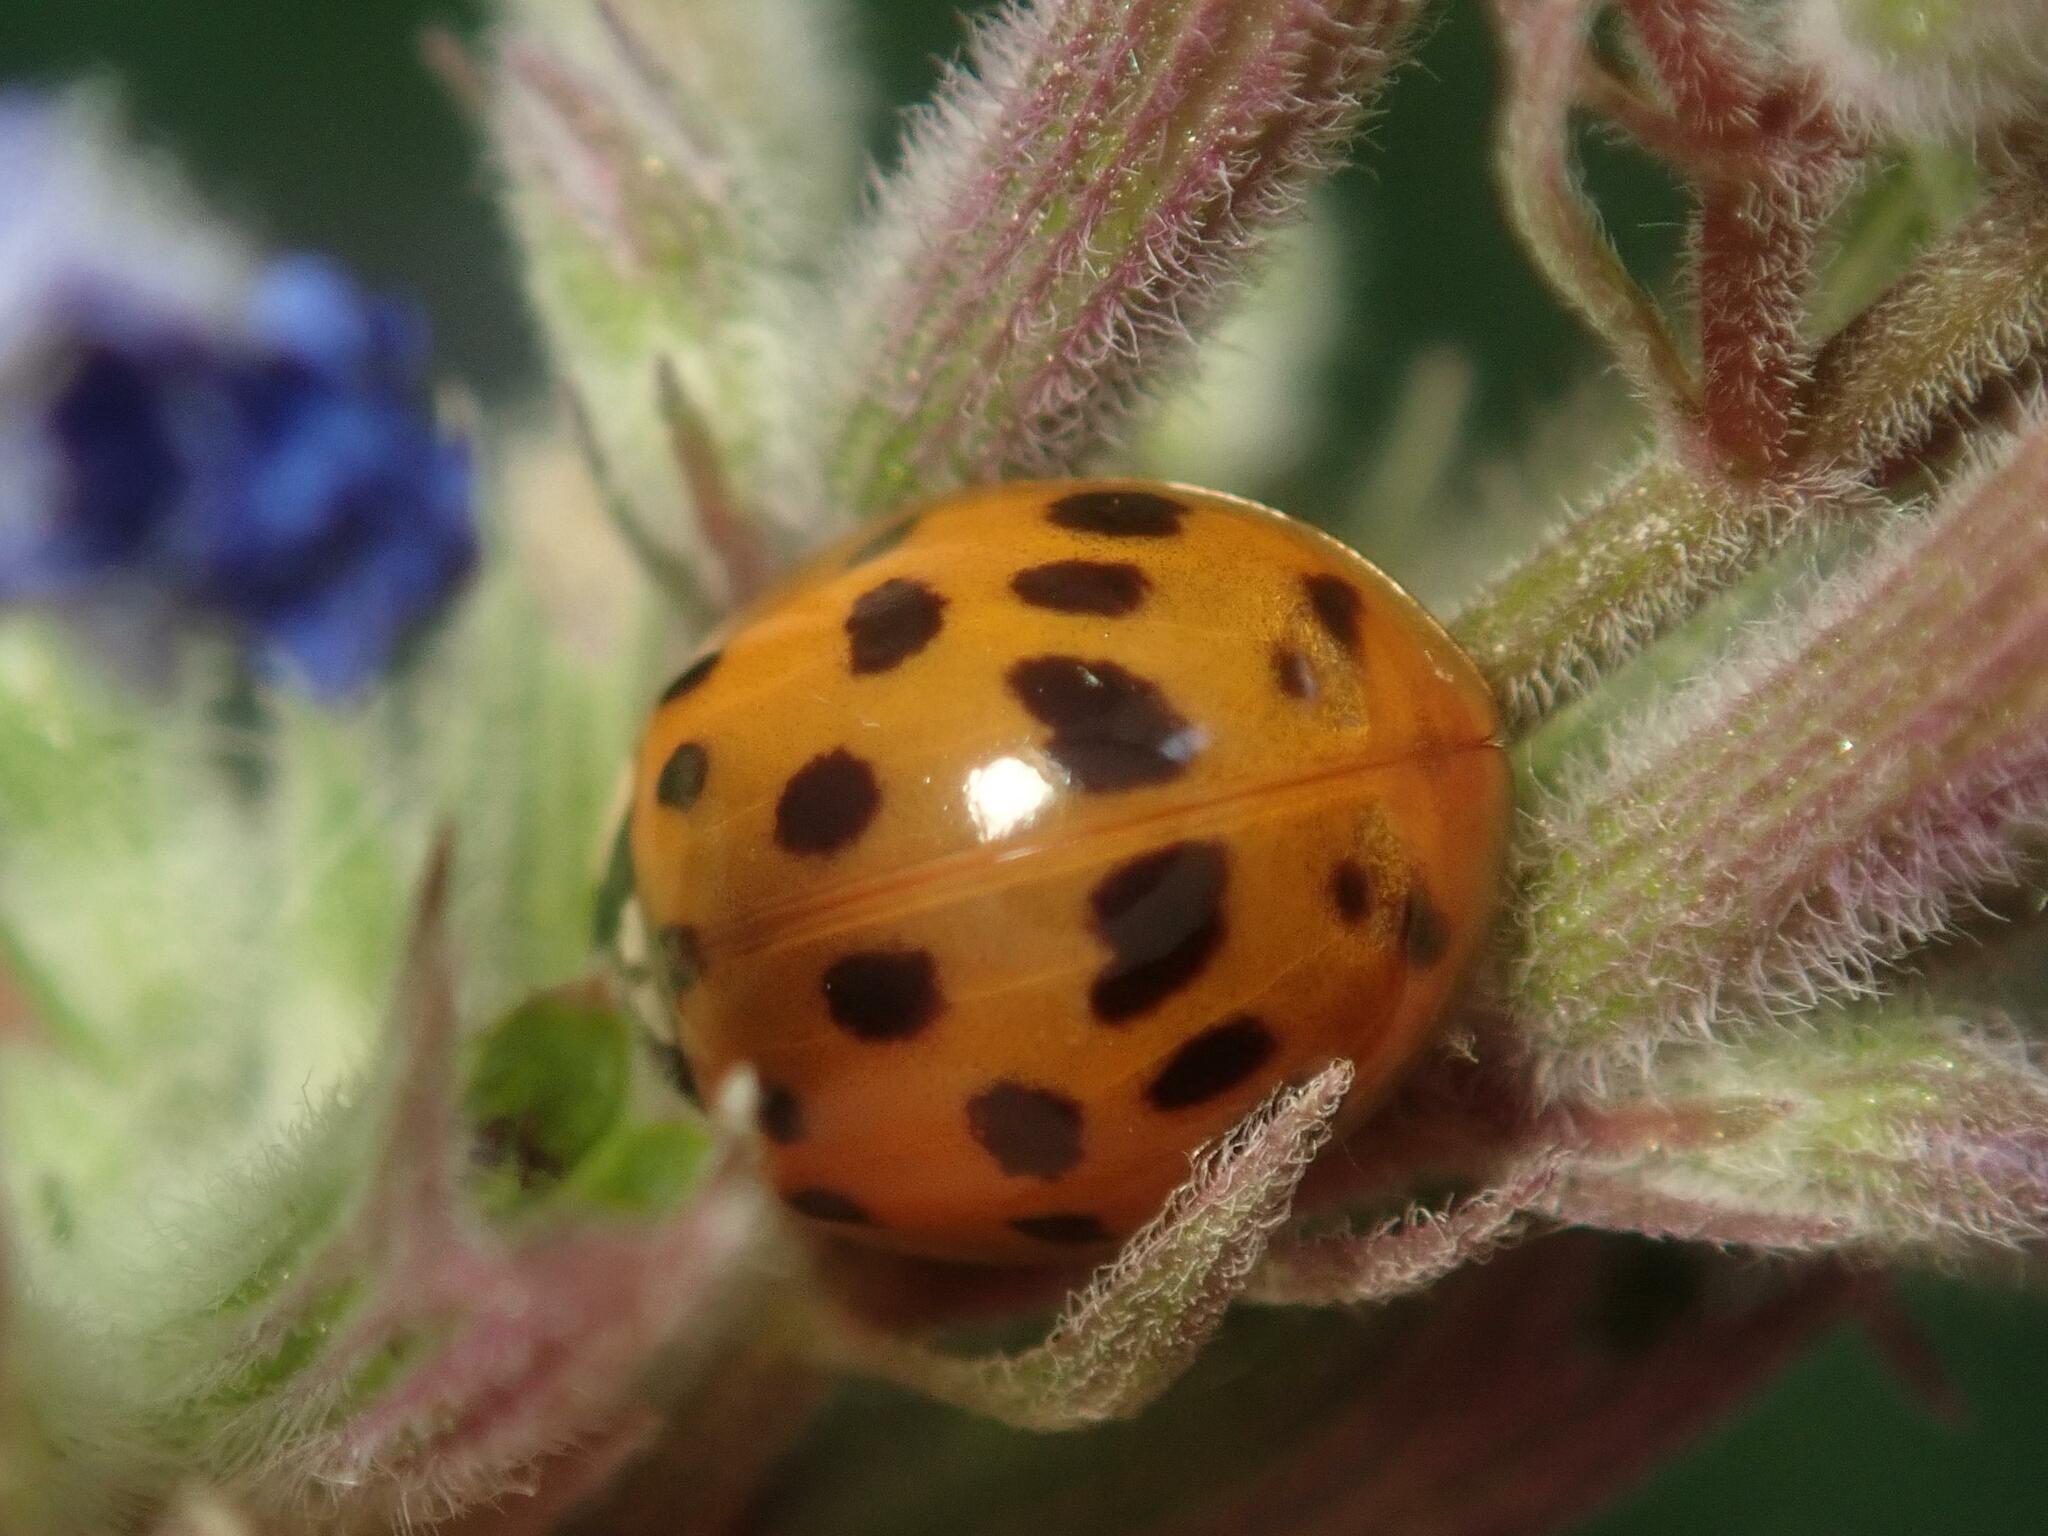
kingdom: Animalia
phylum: Arthropoda
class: Insecta
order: Coleoptera
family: Coccinellidae
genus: Harmonia
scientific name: Harmonia axyridis
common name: Harlequin ladybird
